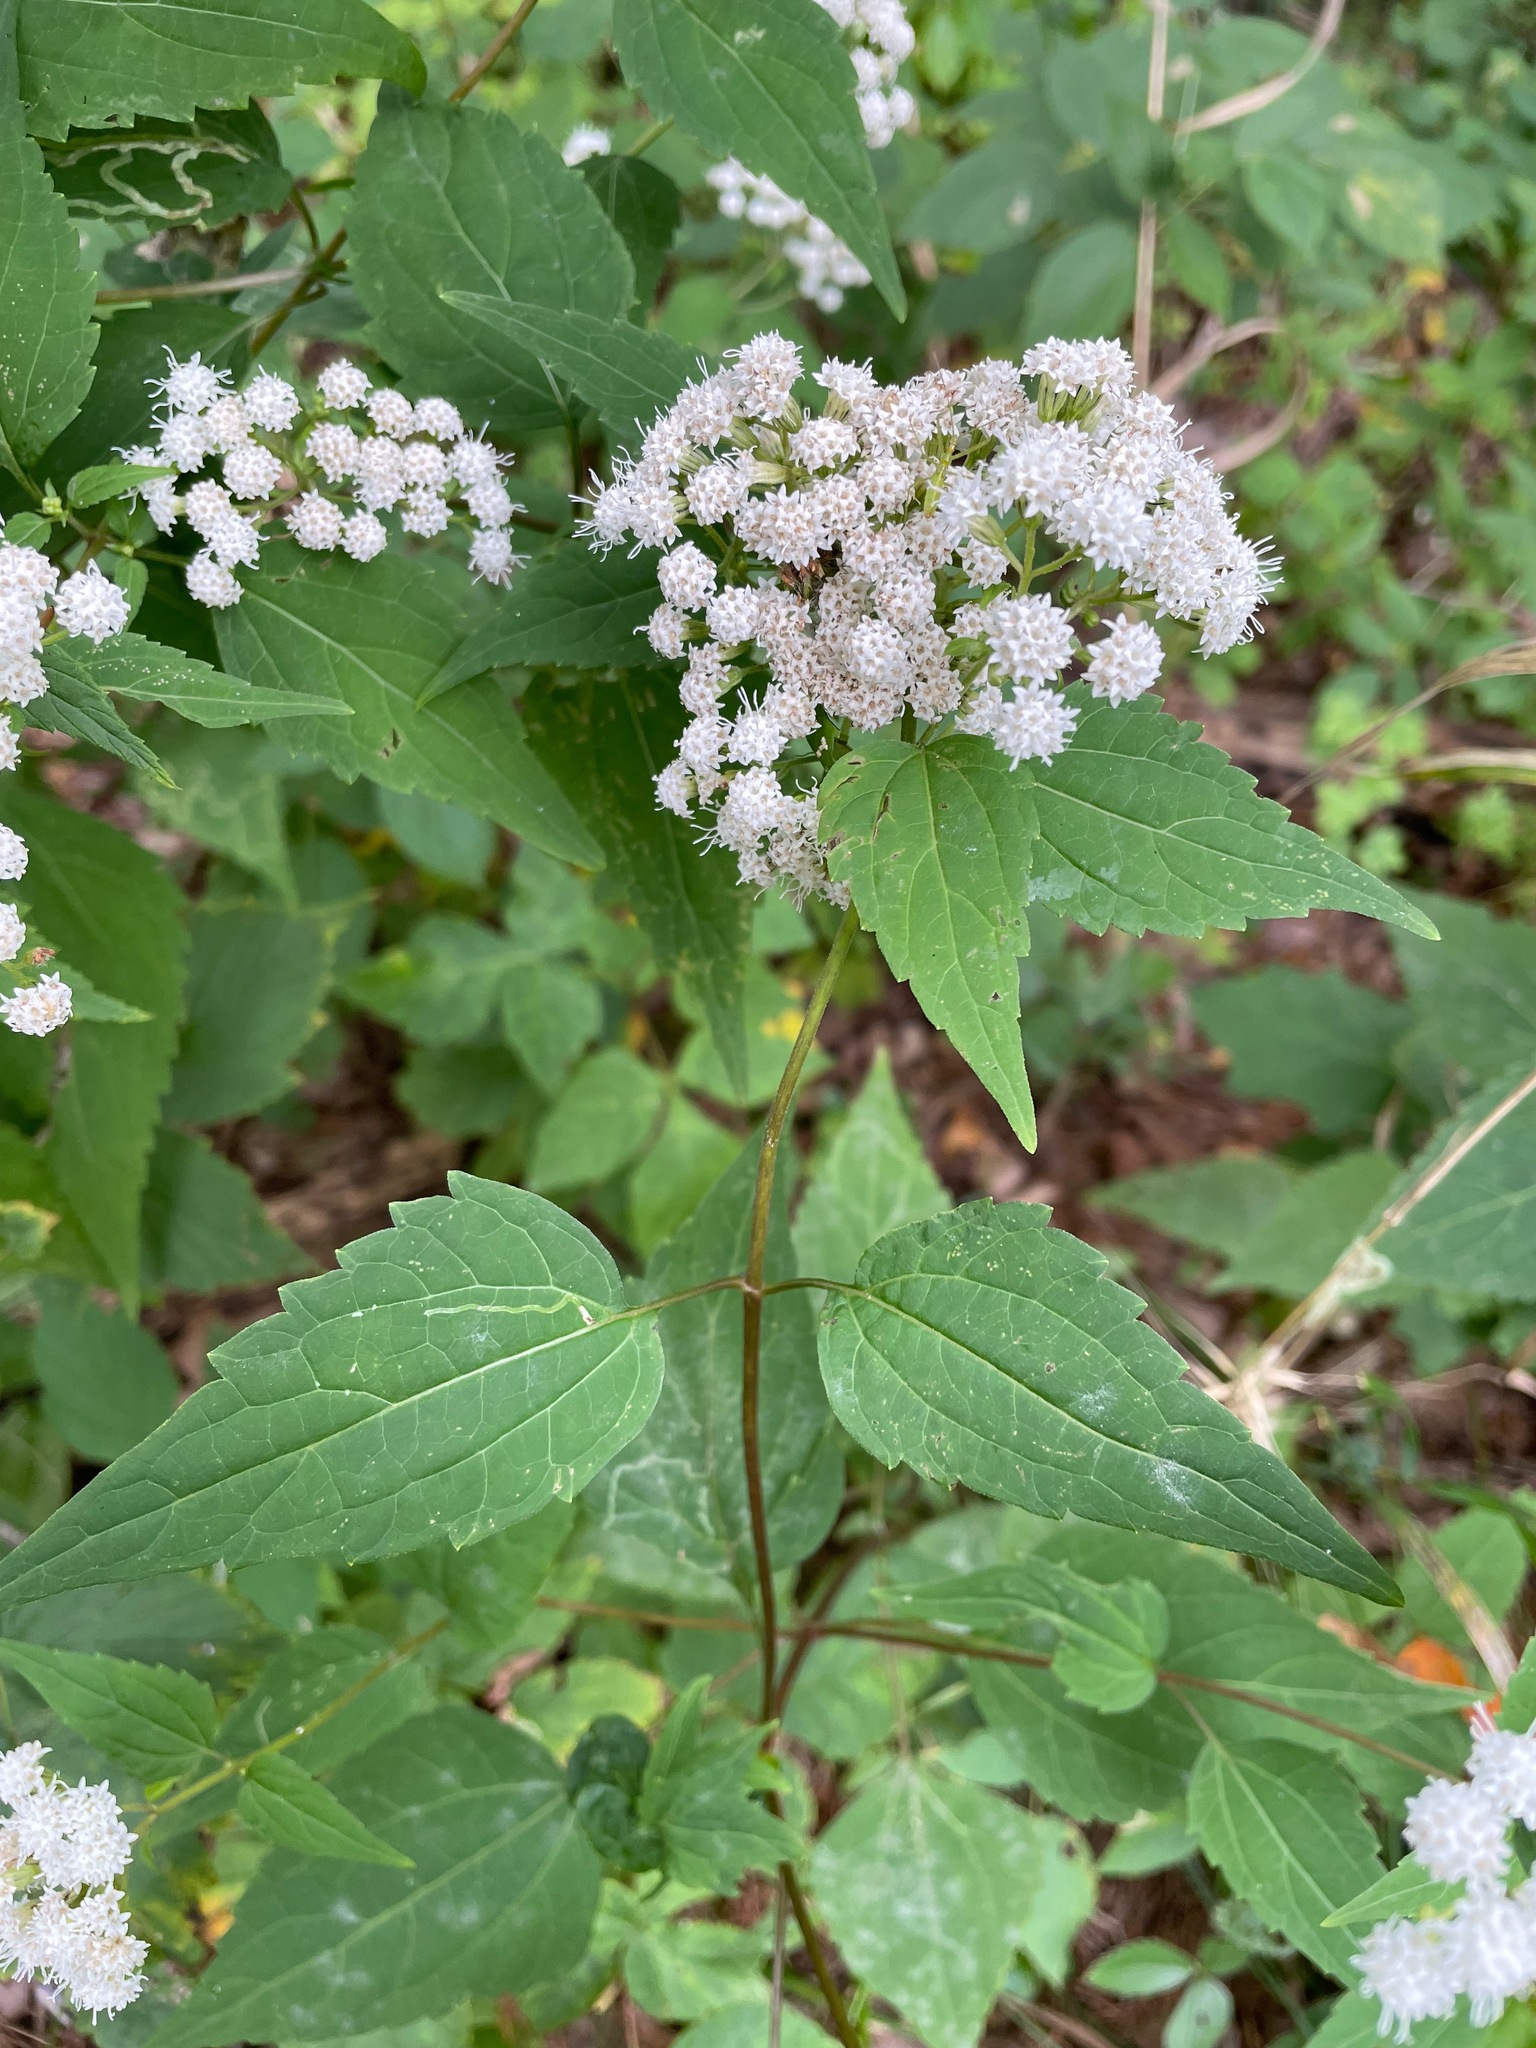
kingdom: Plantae
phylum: Tracheophyta
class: Magnoliopsida
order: Asterales
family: Asteraceae
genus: Ageratina
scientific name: Ageratina altissima
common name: White snakeroot
